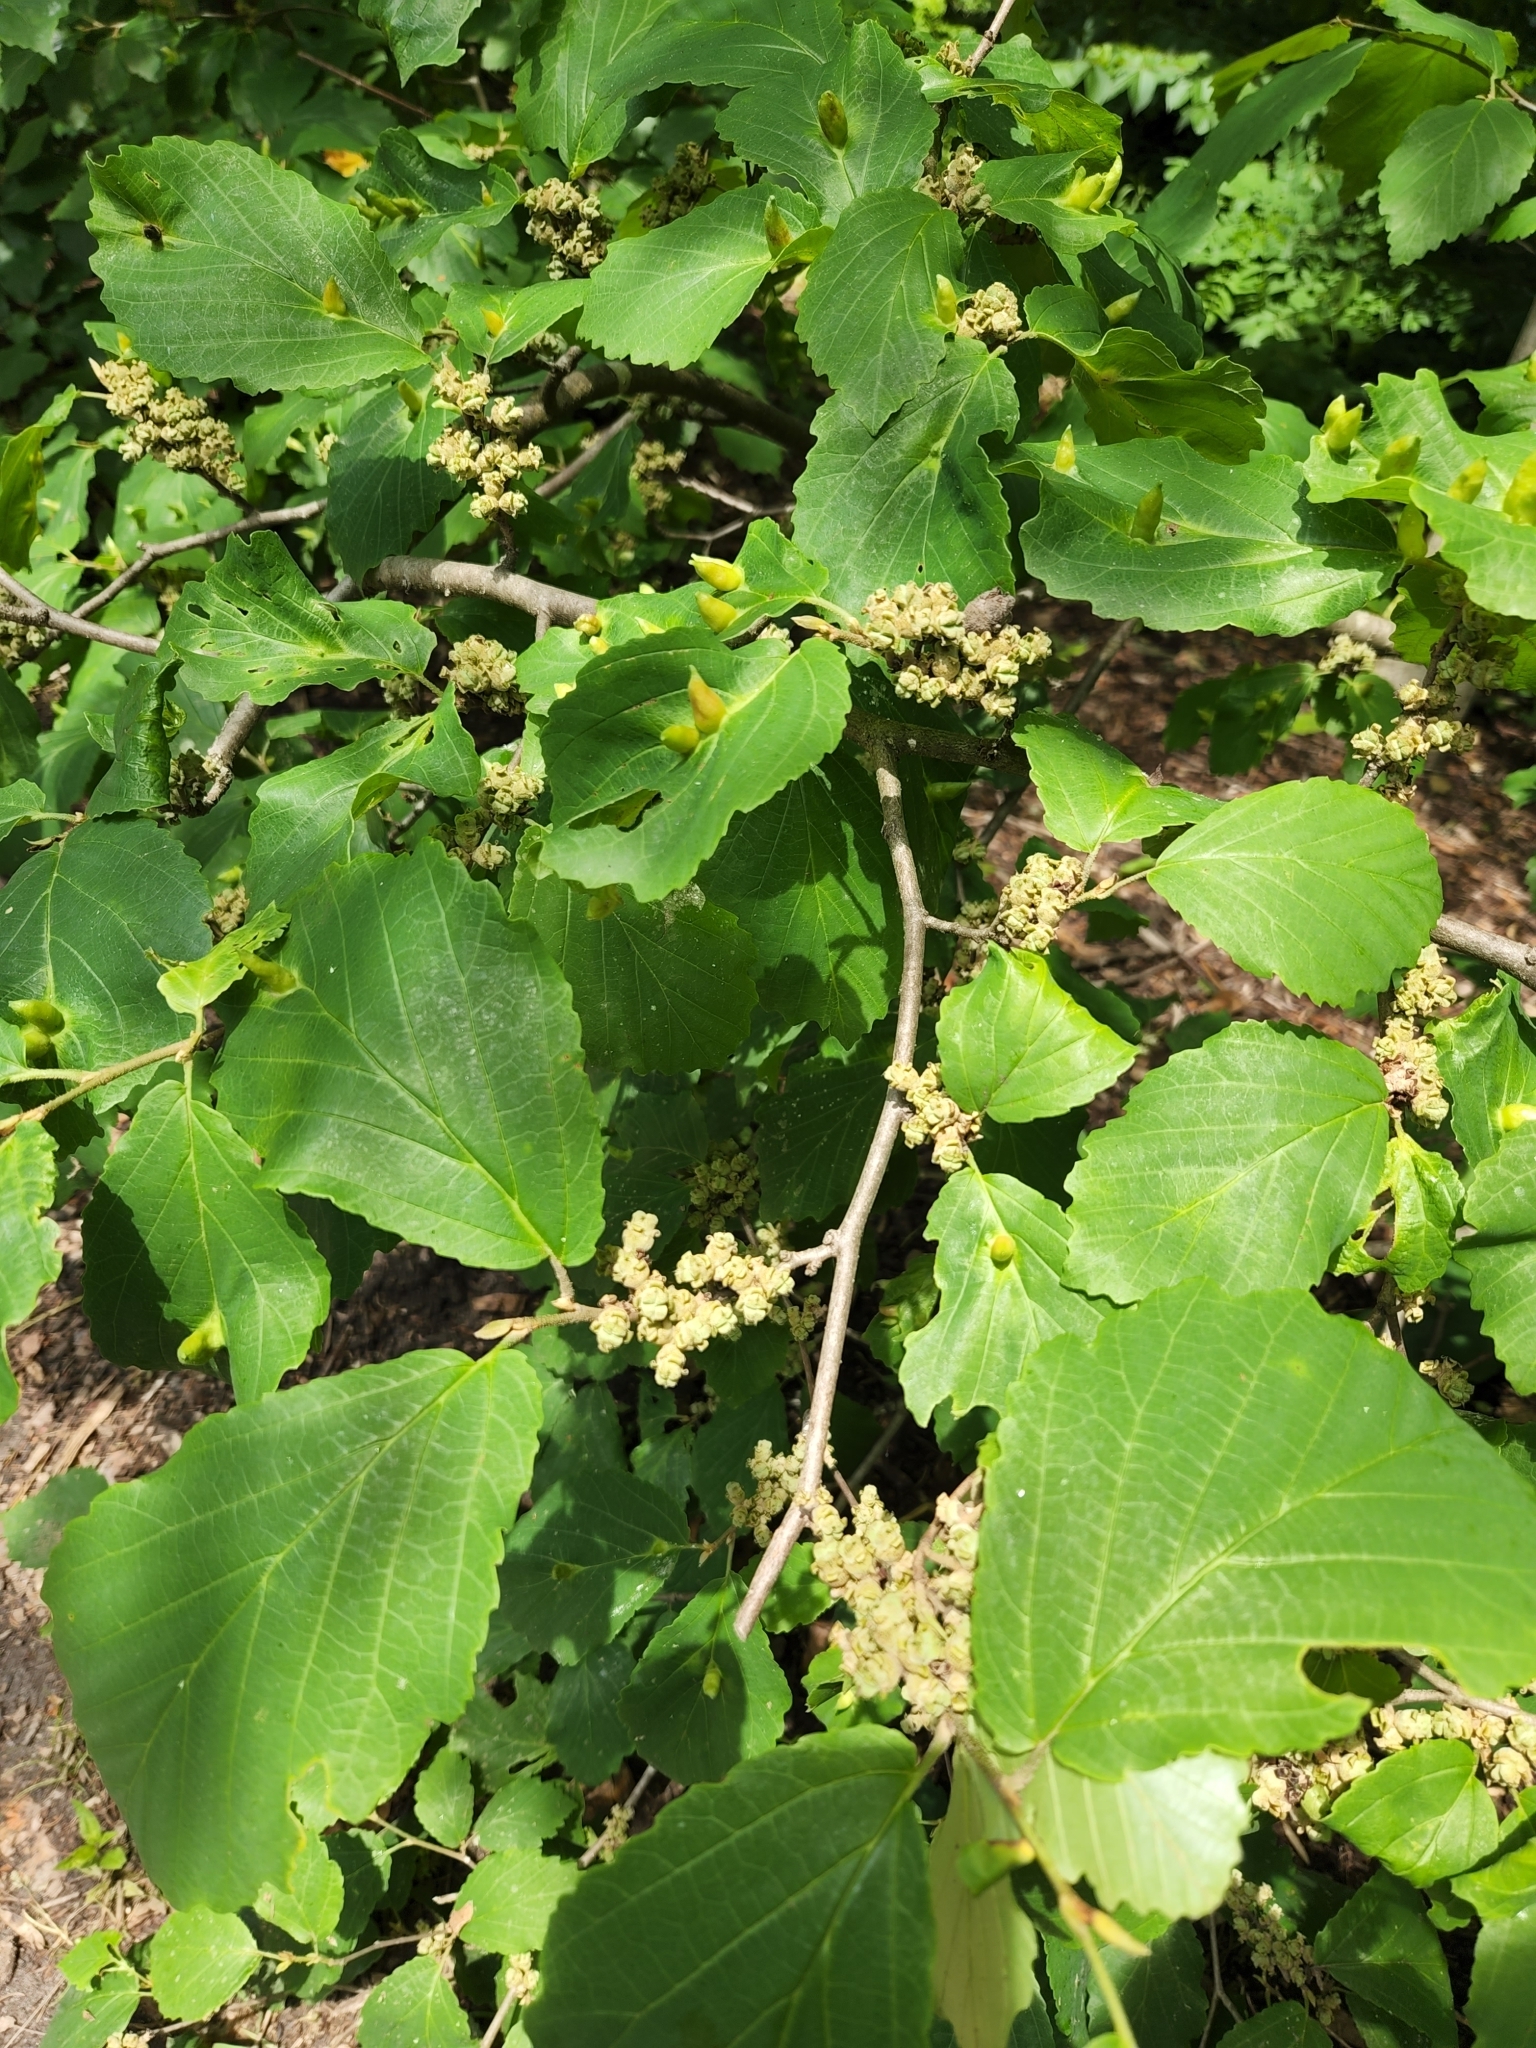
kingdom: Plantae
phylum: Tracheophyta
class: Magnoliopsida
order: Saxifragales
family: Hamamelidaceae
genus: Hamamelis
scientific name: Hamamelis virginiana
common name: Witch-hazel
